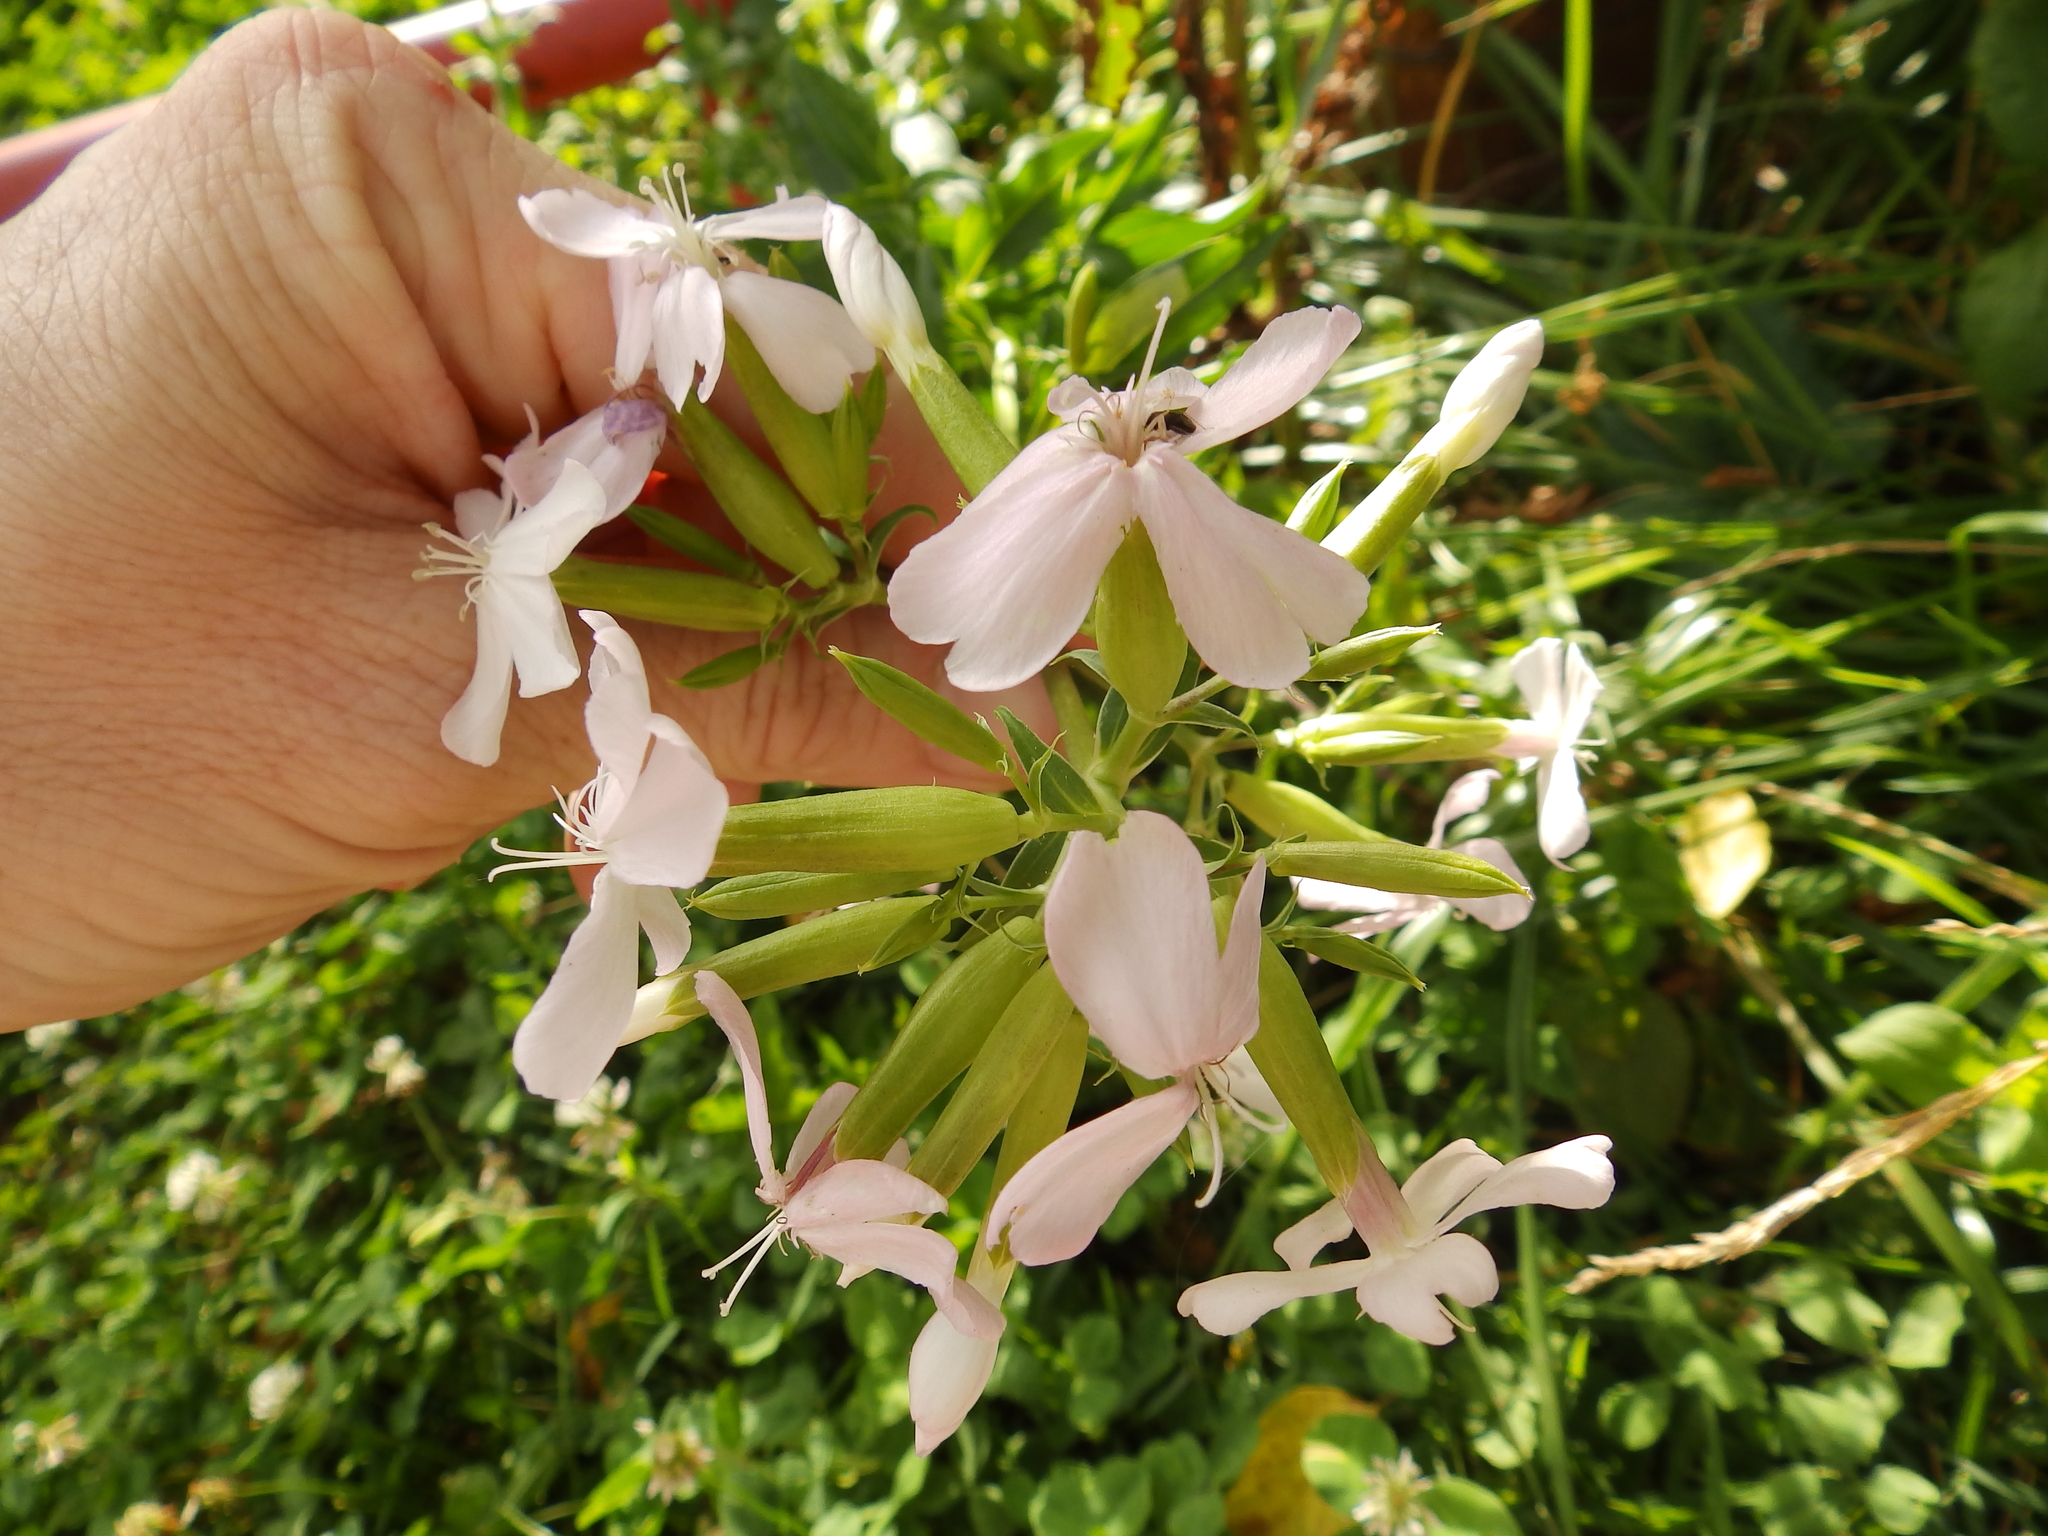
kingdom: Plantae
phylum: Tracheophyta
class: Magnoliopsida
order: Caryophyllales
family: Caryophyllaceae
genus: Saponaria
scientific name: Saponaria officinalis
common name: Soapwort
